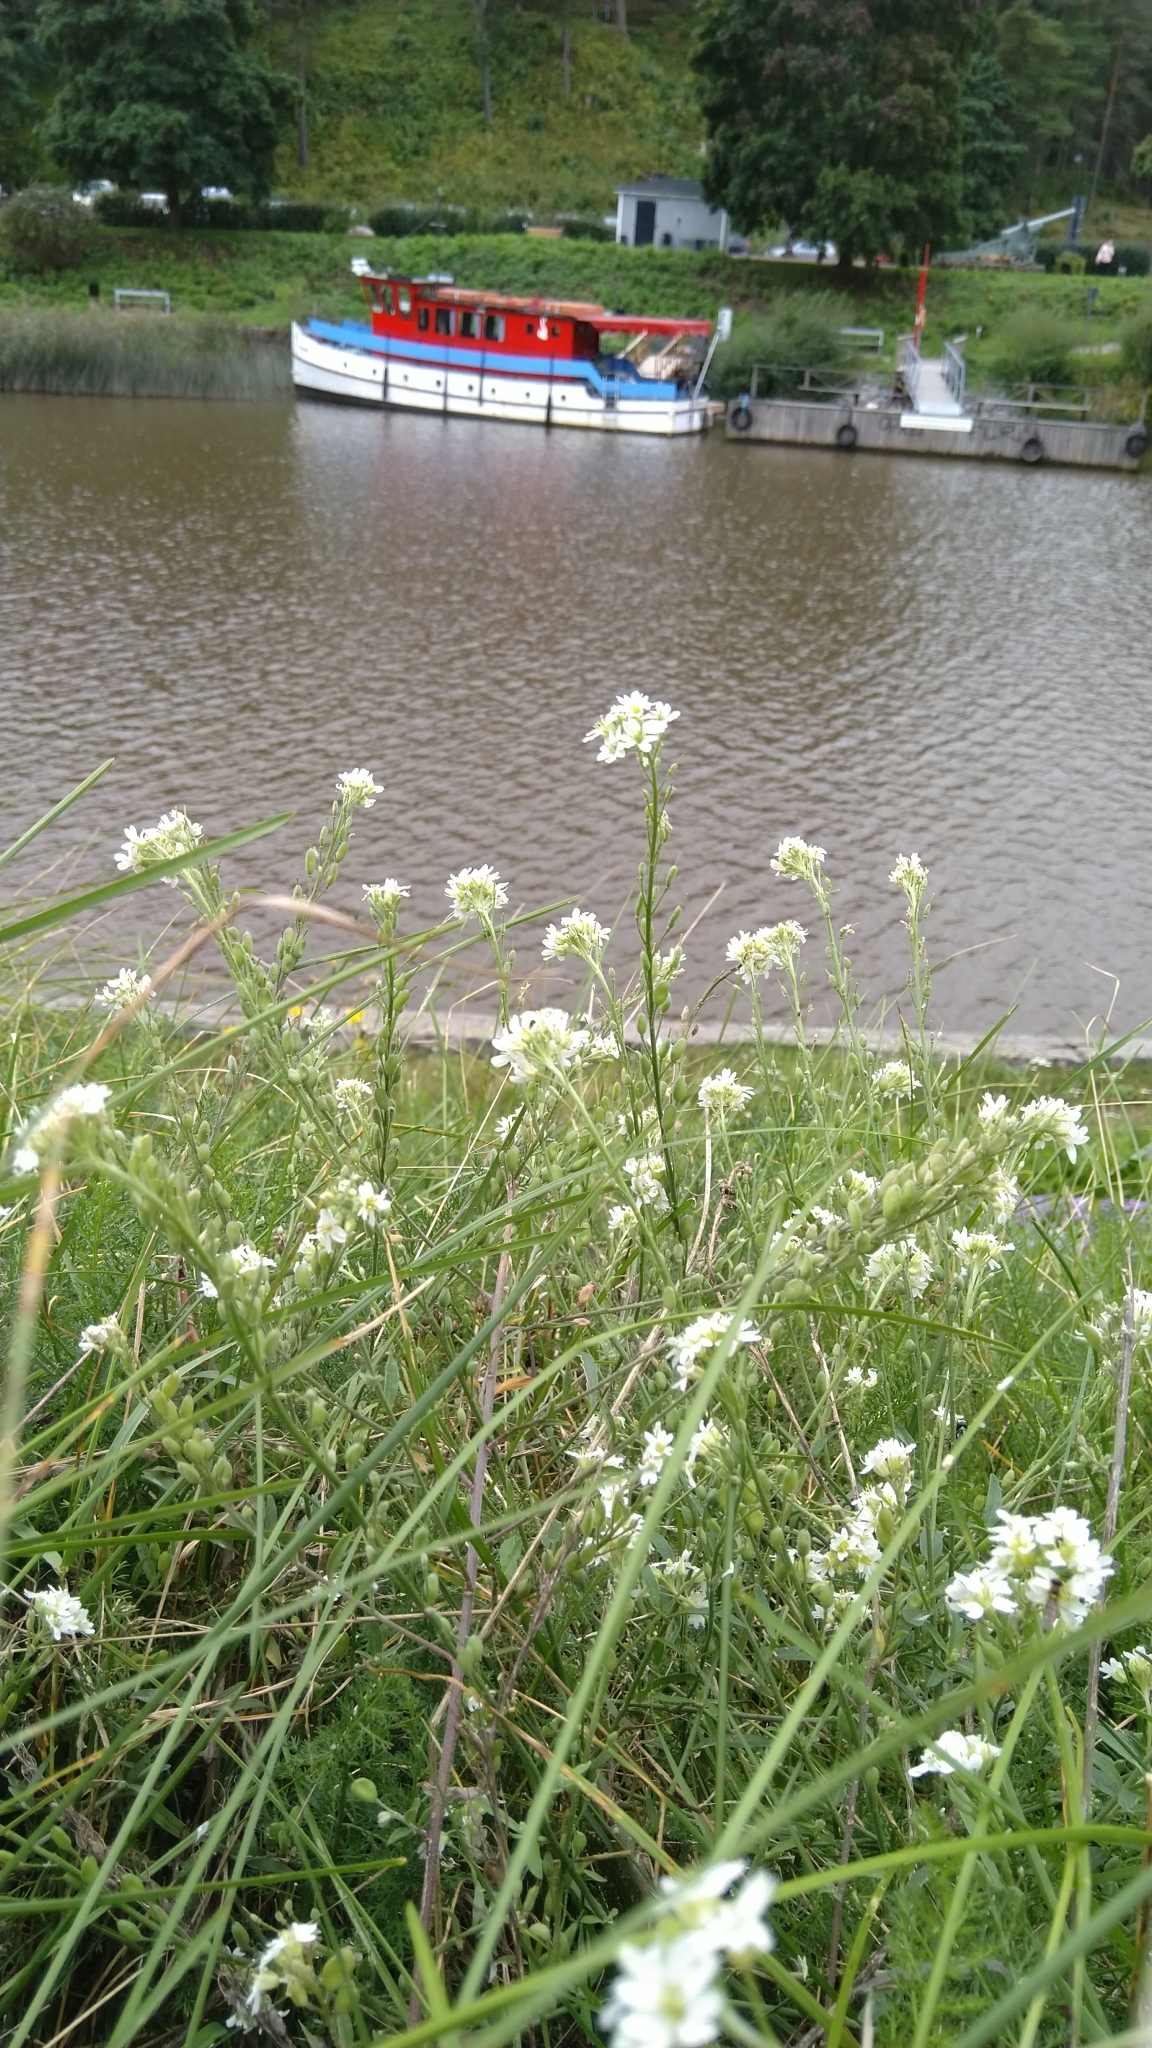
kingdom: Plantae
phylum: Tracheophyta
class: Magnoliopsida
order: Brassicales
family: Brassicaceae
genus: Berteroa
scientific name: Berteroa incana
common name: Hoary alison
